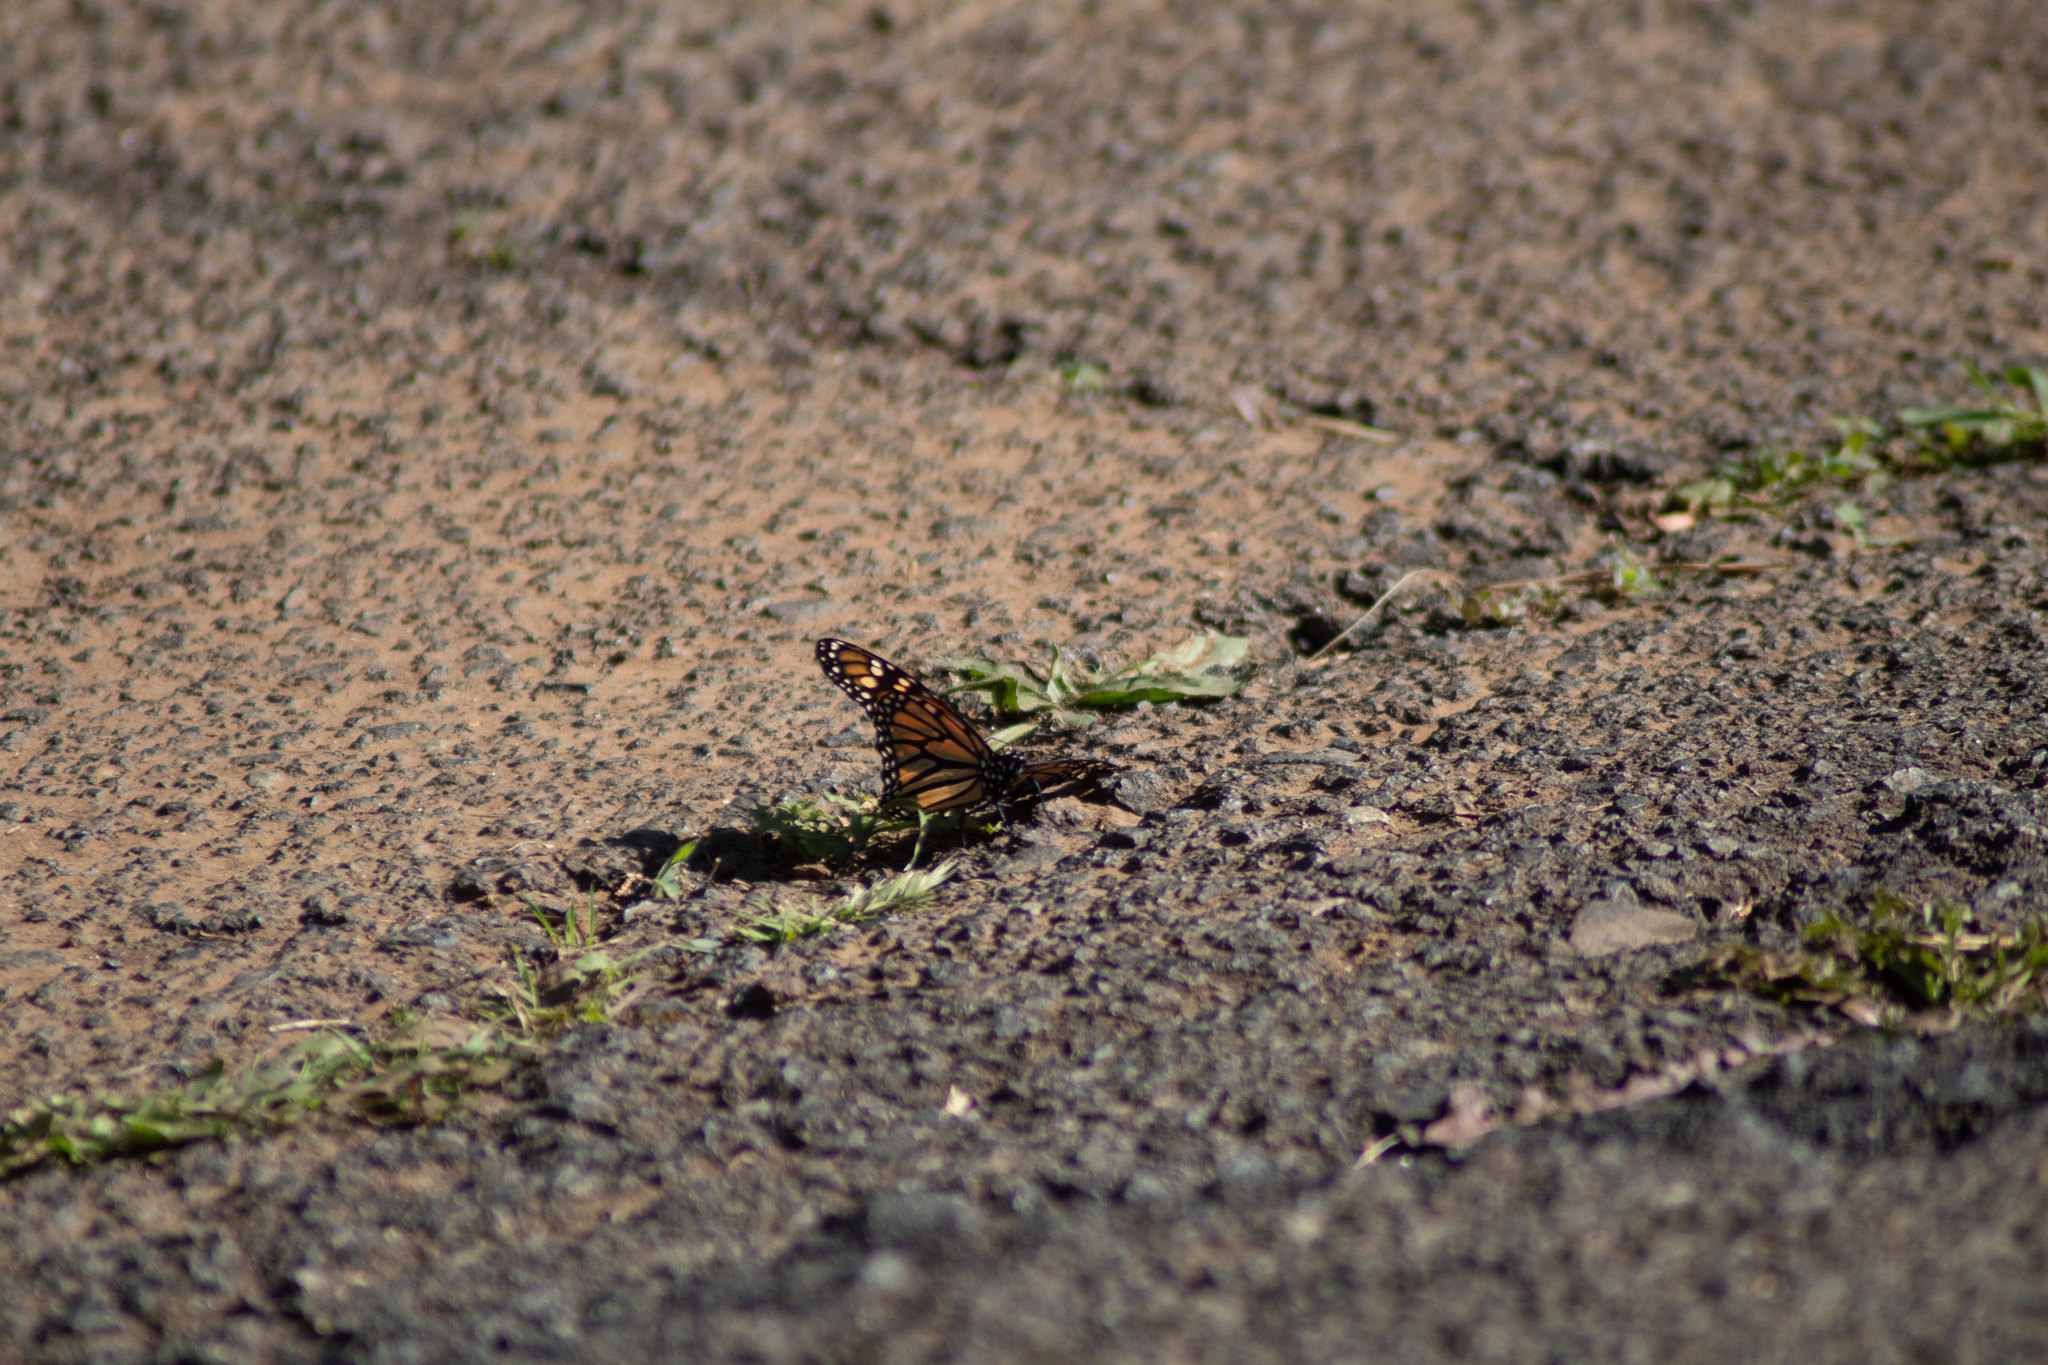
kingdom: Animalia
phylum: Arthropoda
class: Insecta
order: Lepidoptera
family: Nymphalidae
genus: Danaus
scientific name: Danaus plexippus
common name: Monarch
